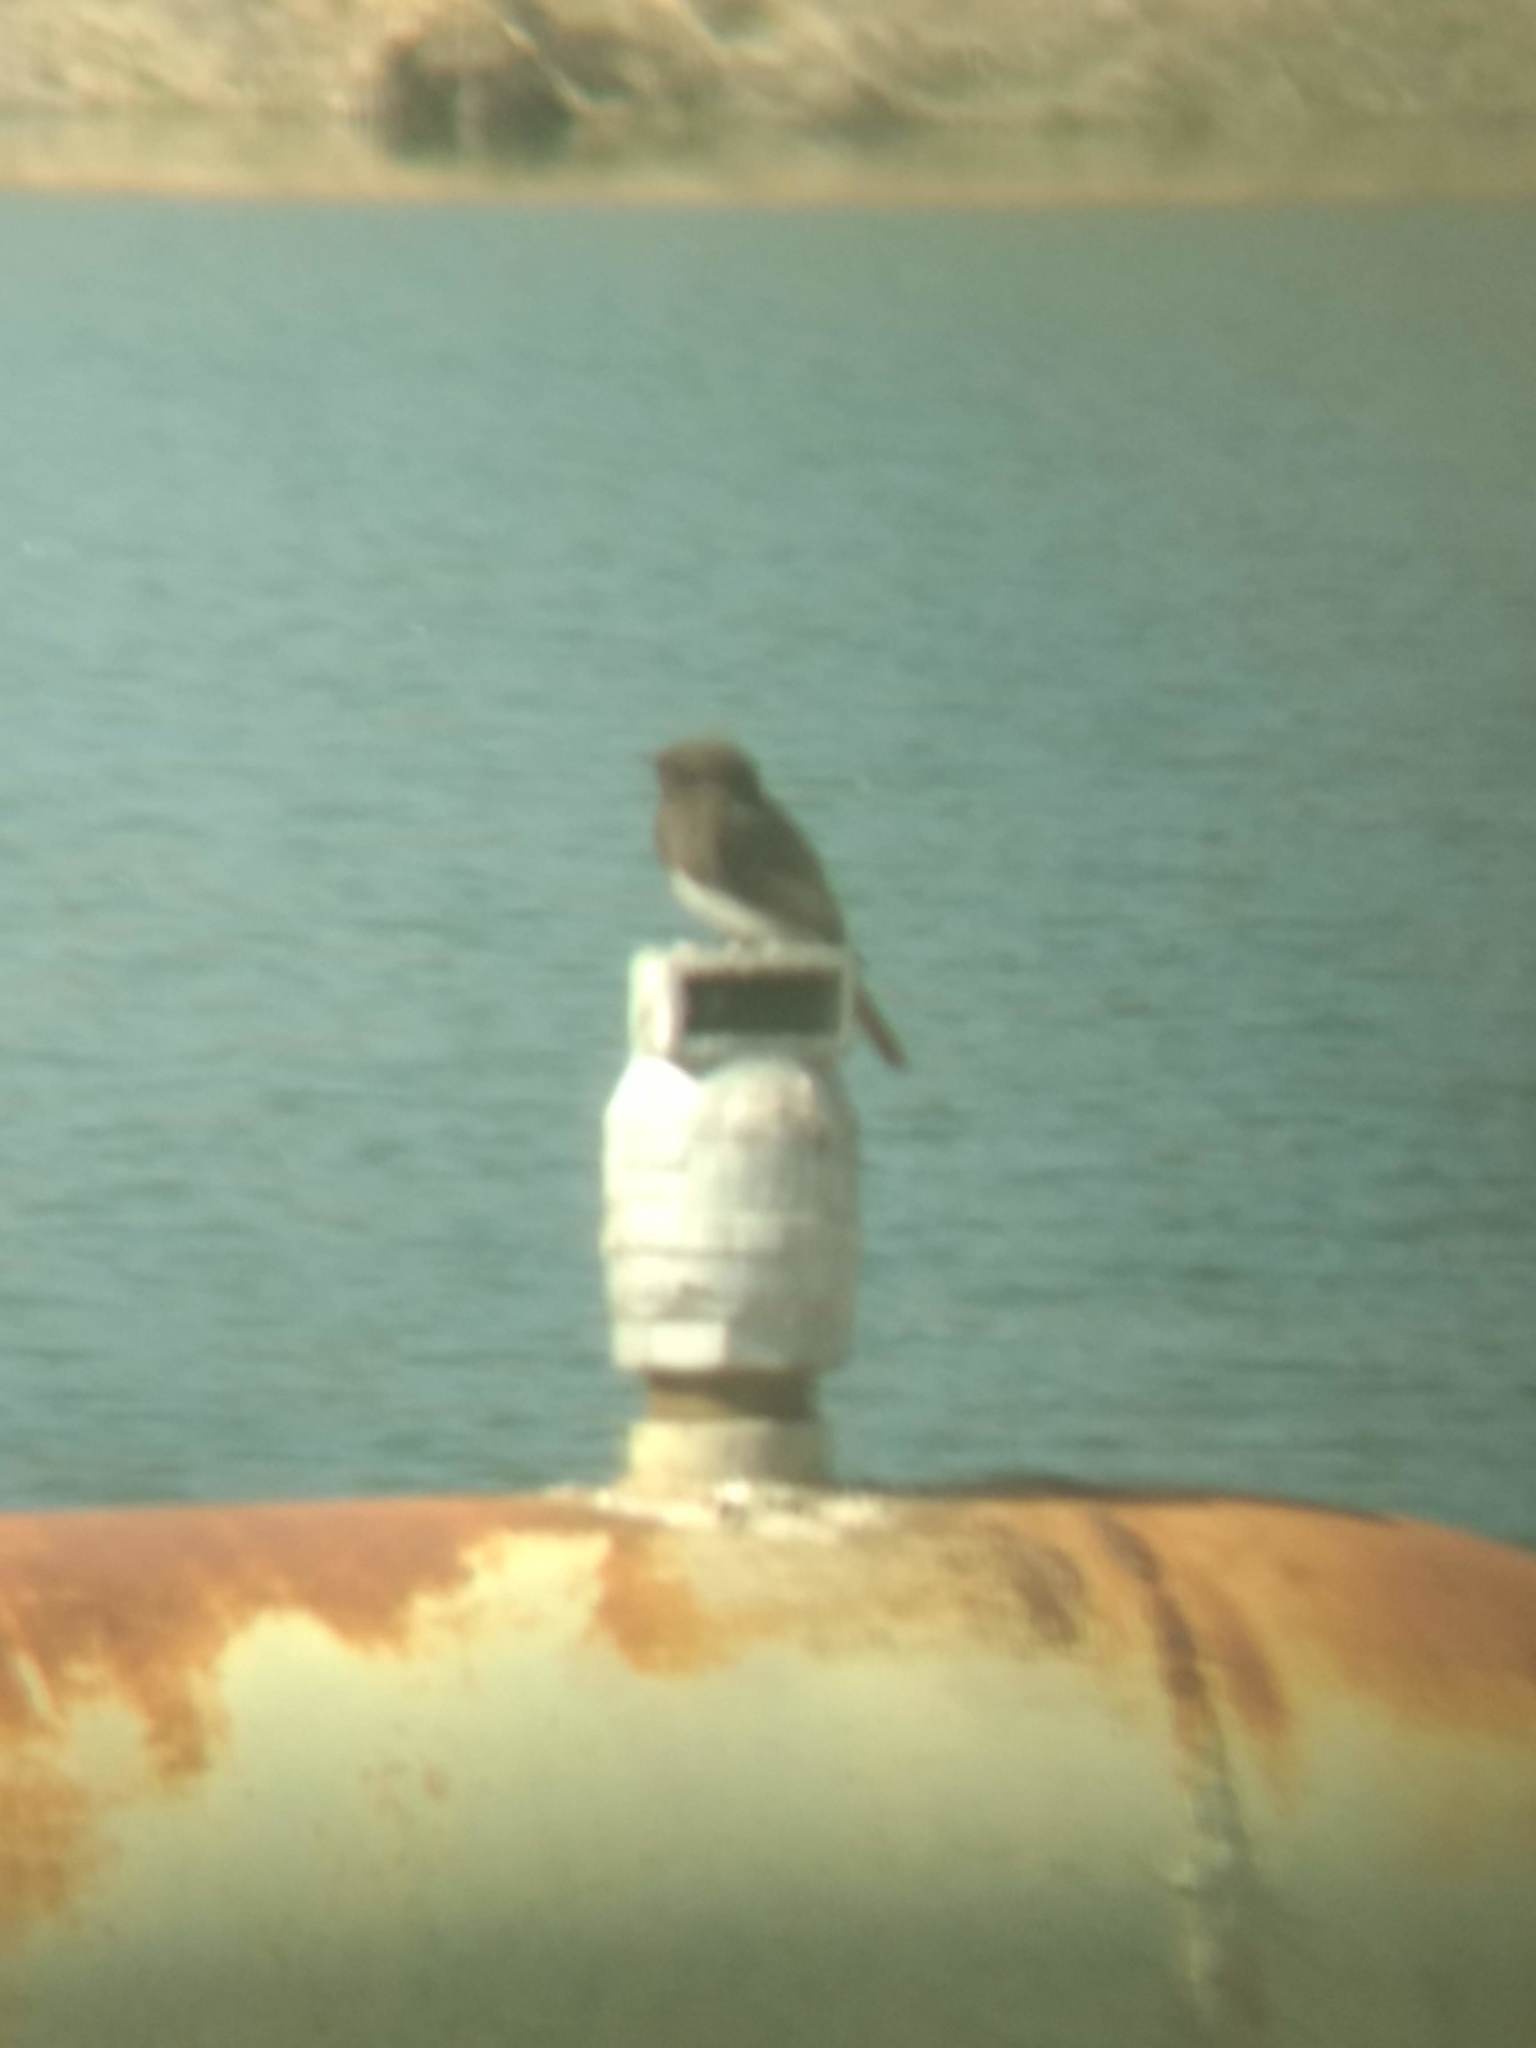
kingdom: Animalia
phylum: Chordata
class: Aves
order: Passeriformes
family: Tyrannidae
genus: Sayornis
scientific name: Sayornis nigricans
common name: Black phoebe
